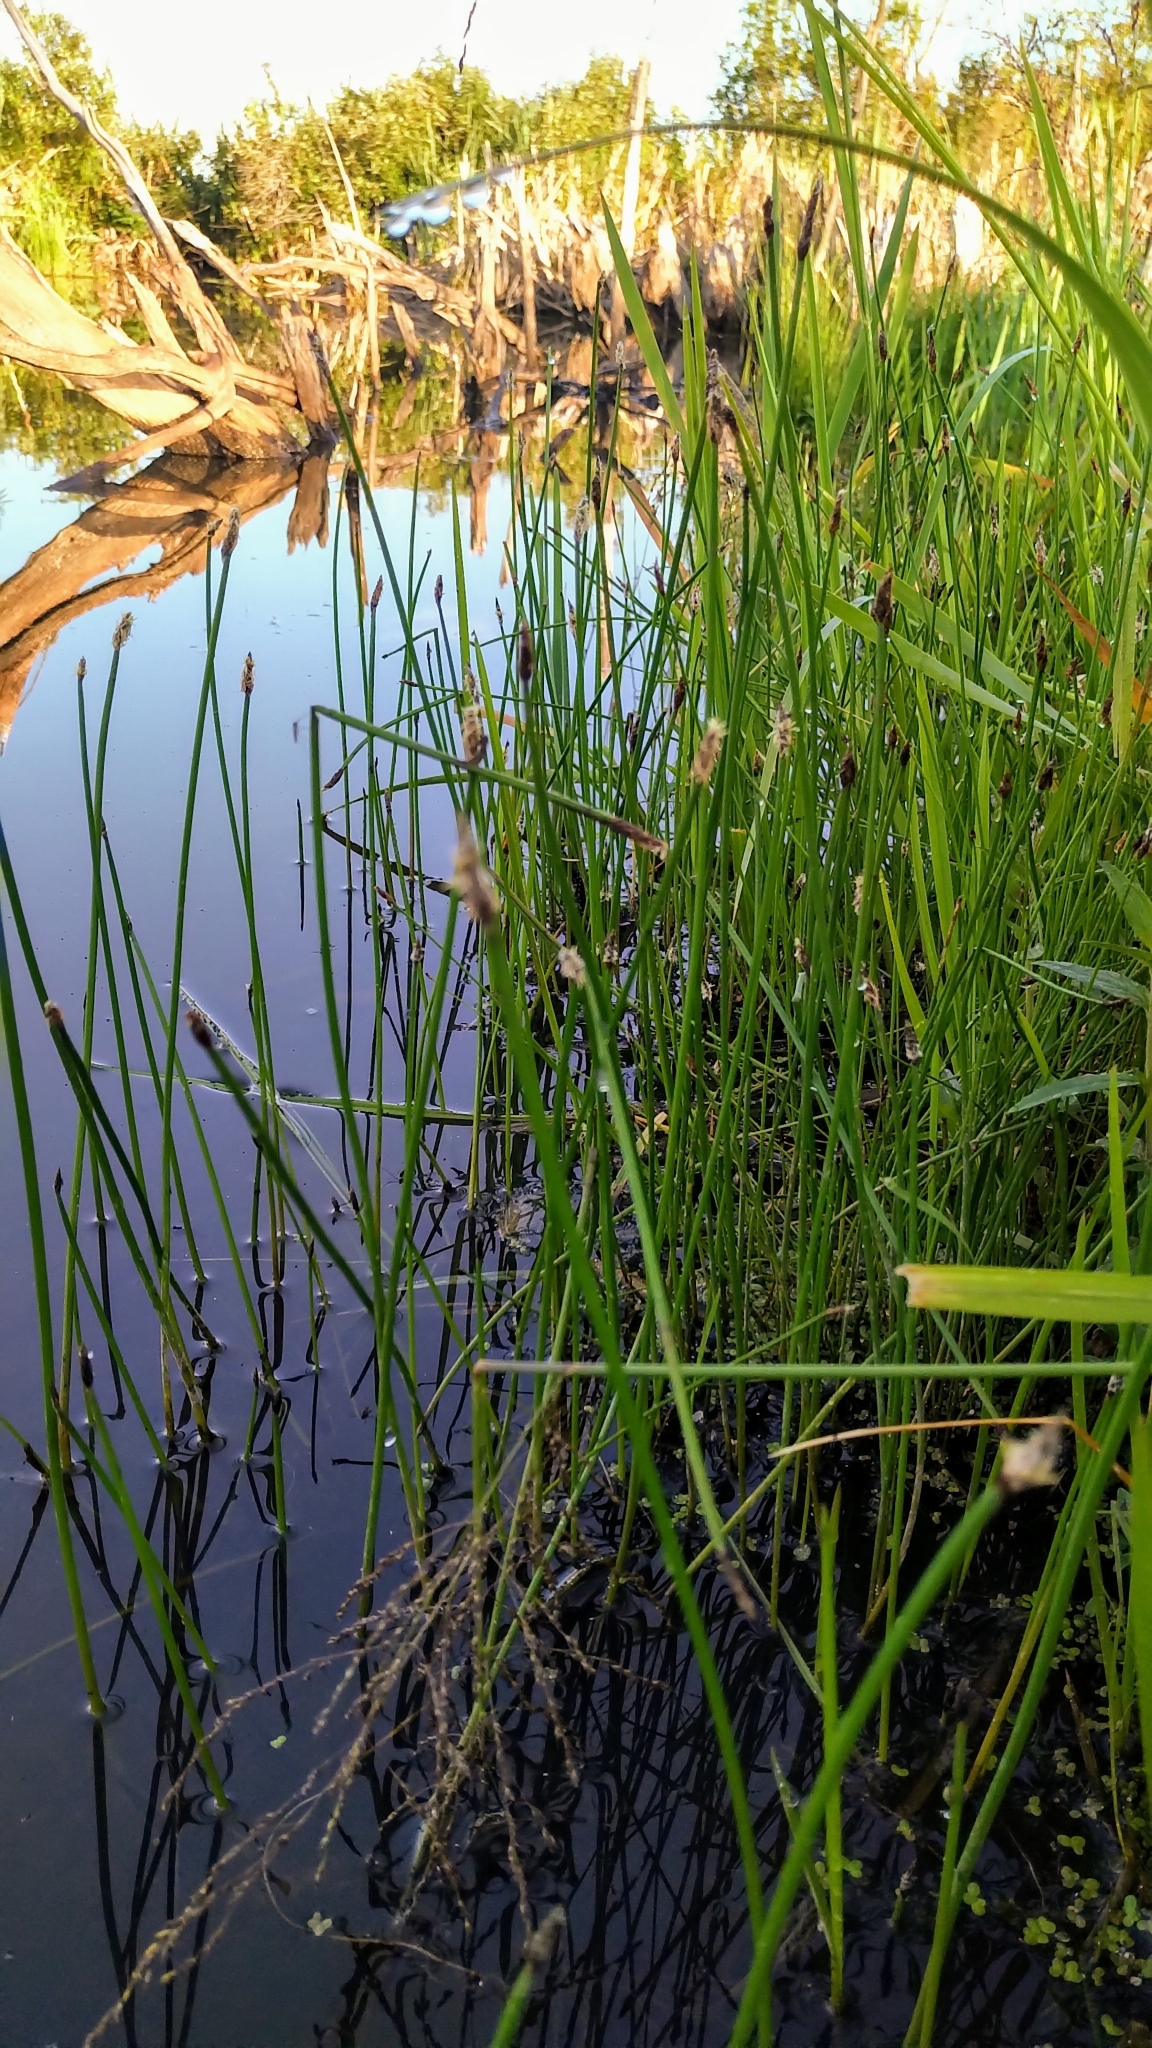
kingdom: Plantae
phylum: Tracheophyta
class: Liliopsida
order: Poales
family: Cyperaceae
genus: Eleocharis
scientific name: Eleocharis
